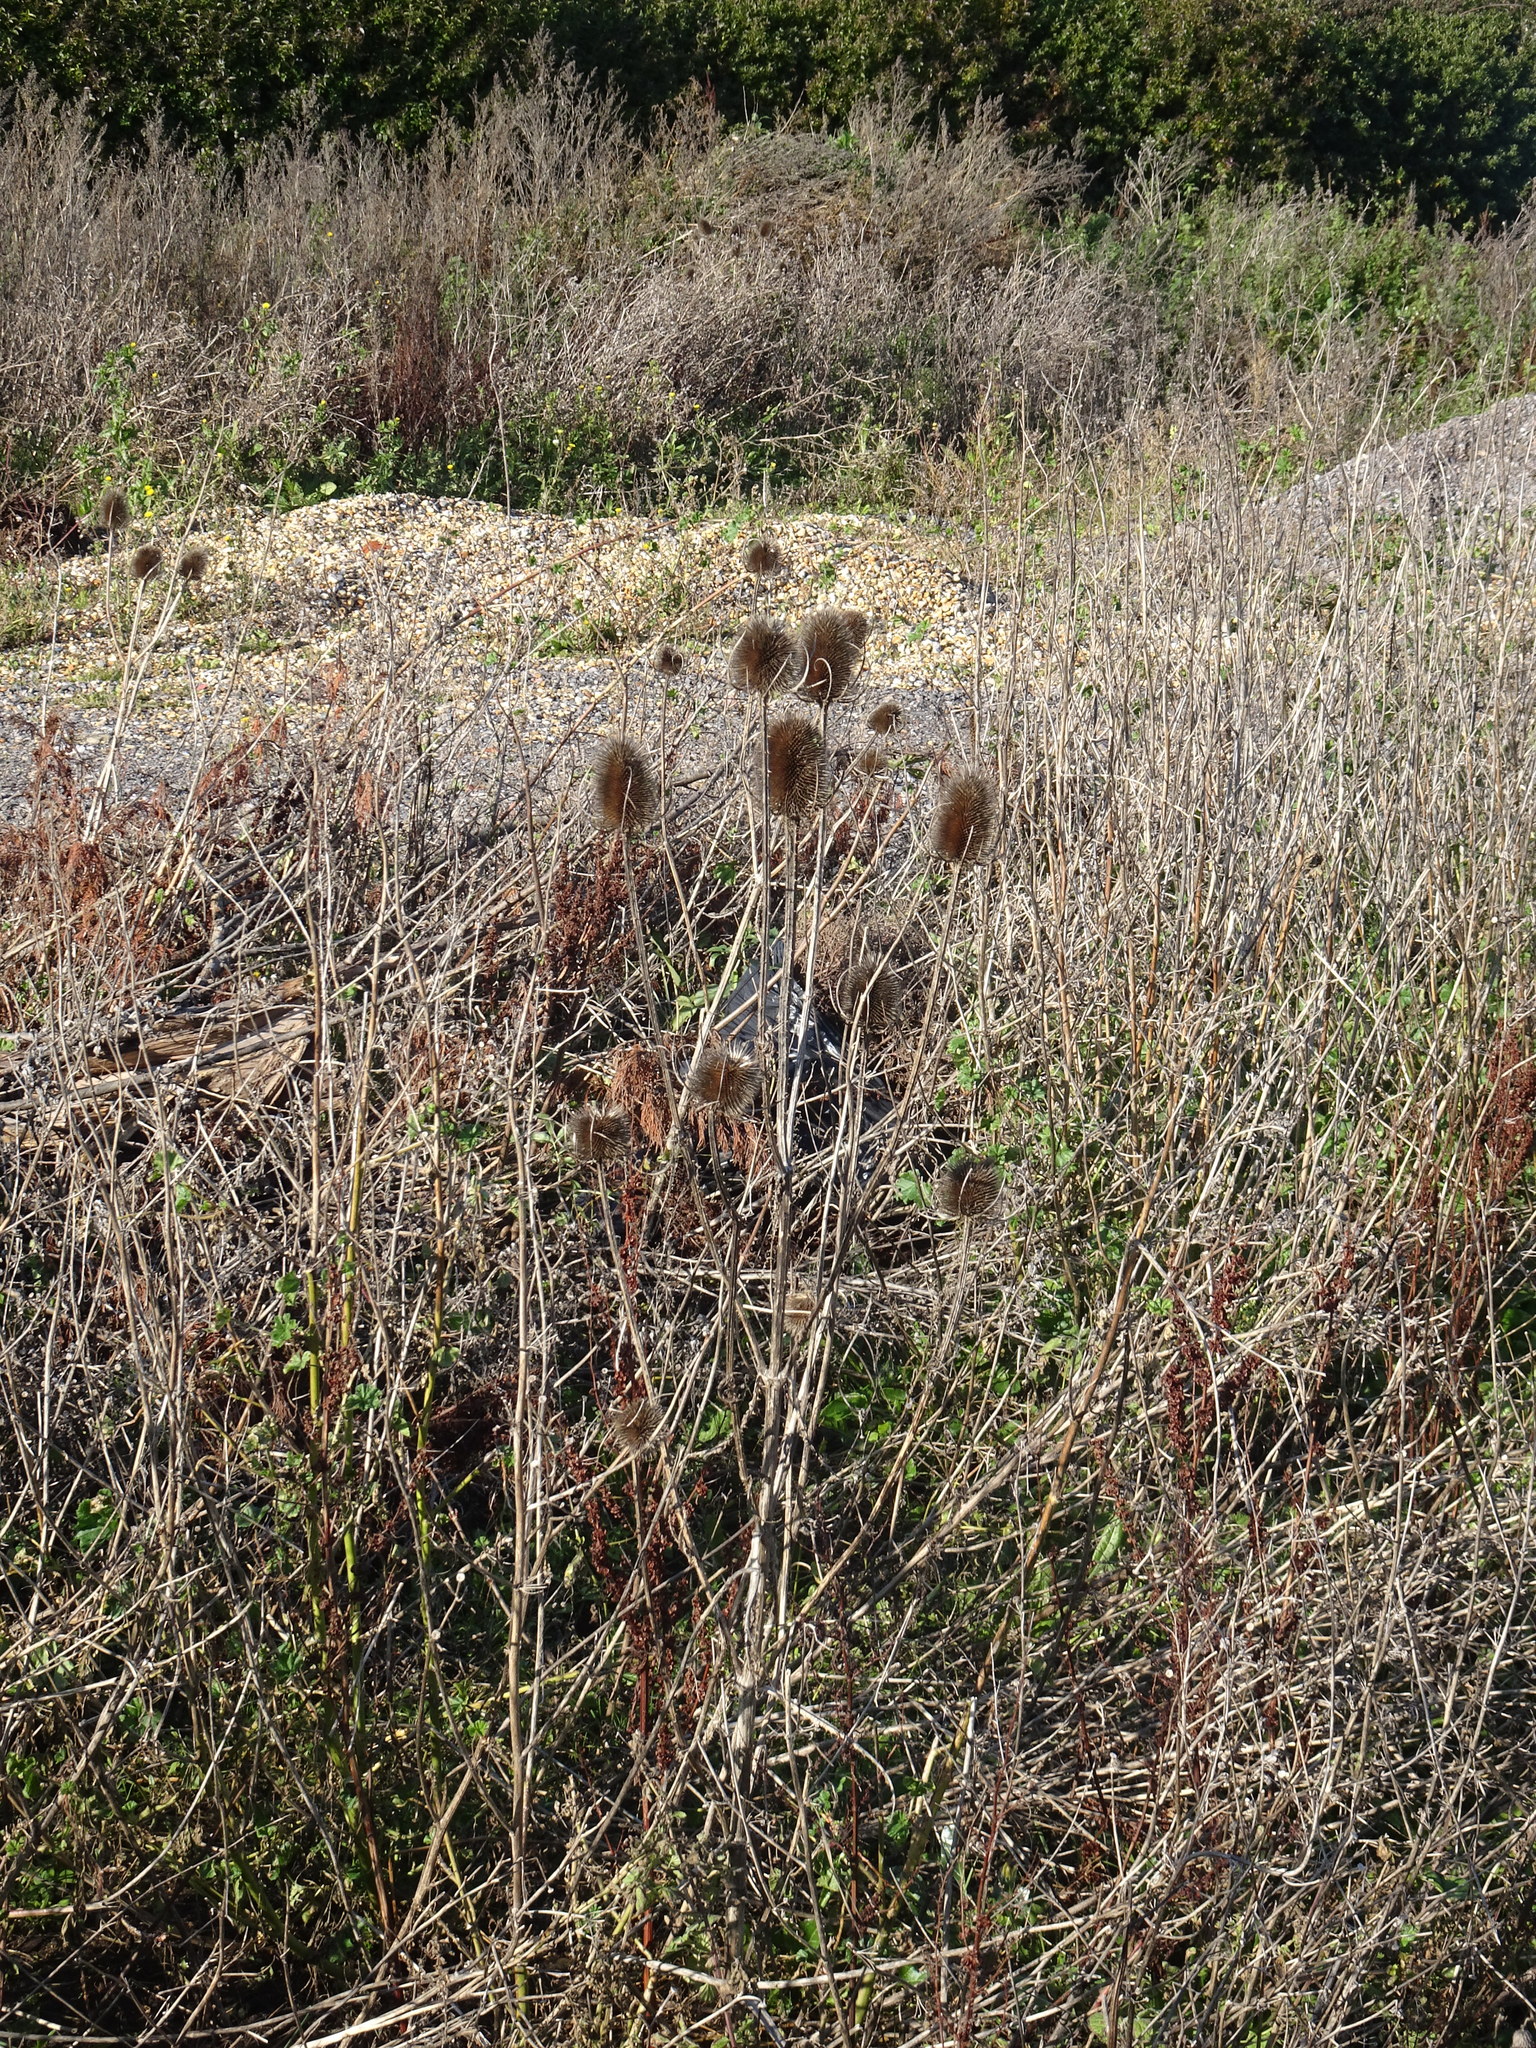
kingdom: Plantae
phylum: Tracheophyta
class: Magnoliopsida
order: Dipsacales
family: Caprifoliaceae
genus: Dipsacus
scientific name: Dipsacus fullonum
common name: Teasel
